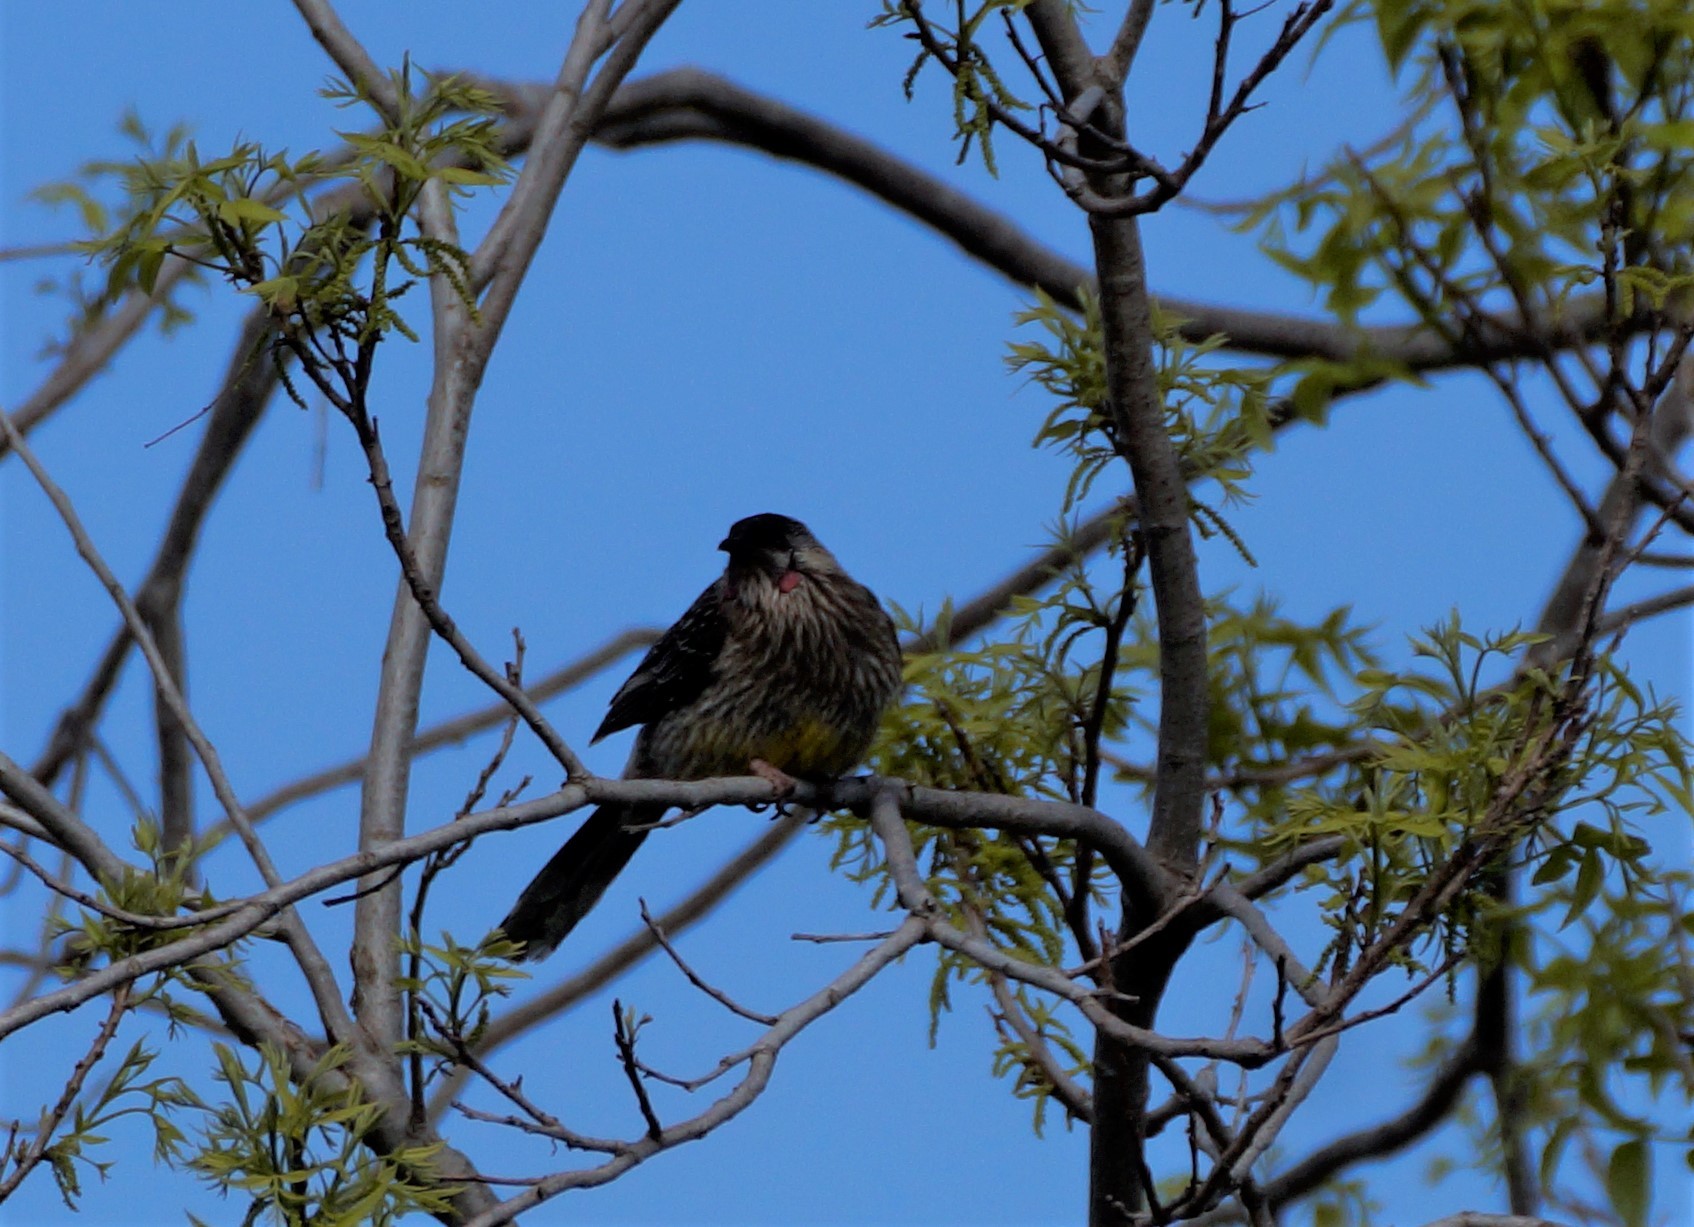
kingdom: Animalia
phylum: Chordata
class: Aves
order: Passeriformes
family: Meliphagidae
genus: Anthochaera
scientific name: Anthochaera carunculata
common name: Red wattlebird
